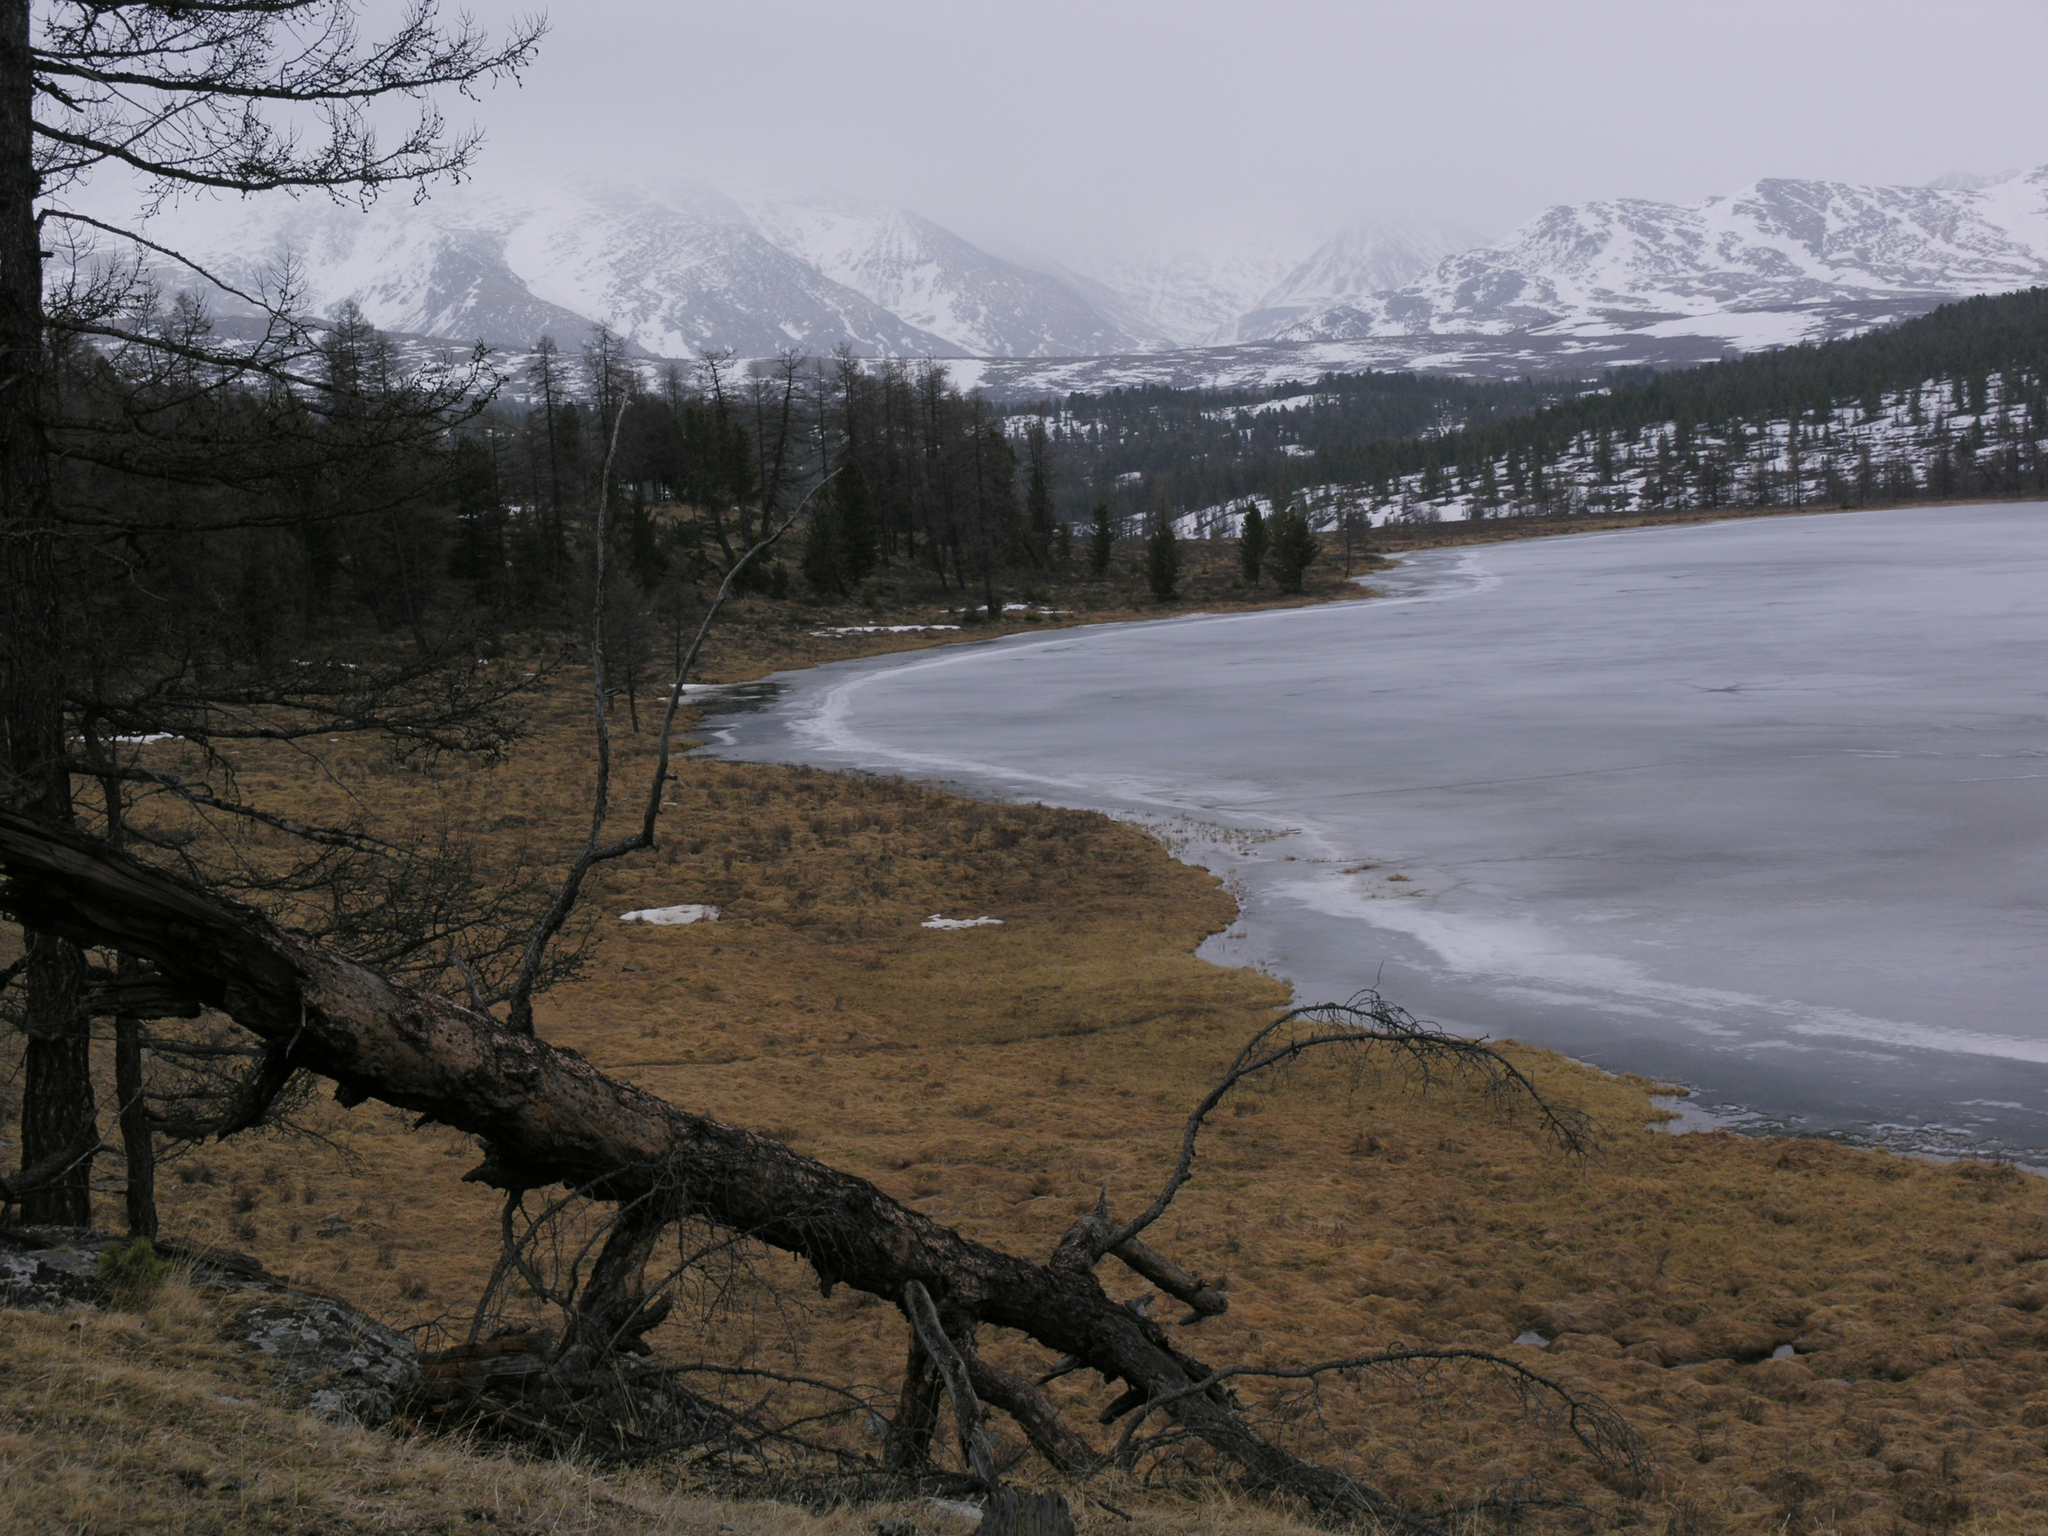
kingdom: Plantae
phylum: Tracheophyta
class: Pinopsida
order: Pinales
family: Pinaceae
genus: Larix
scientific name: Larix sibirica
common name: Siberian larch
